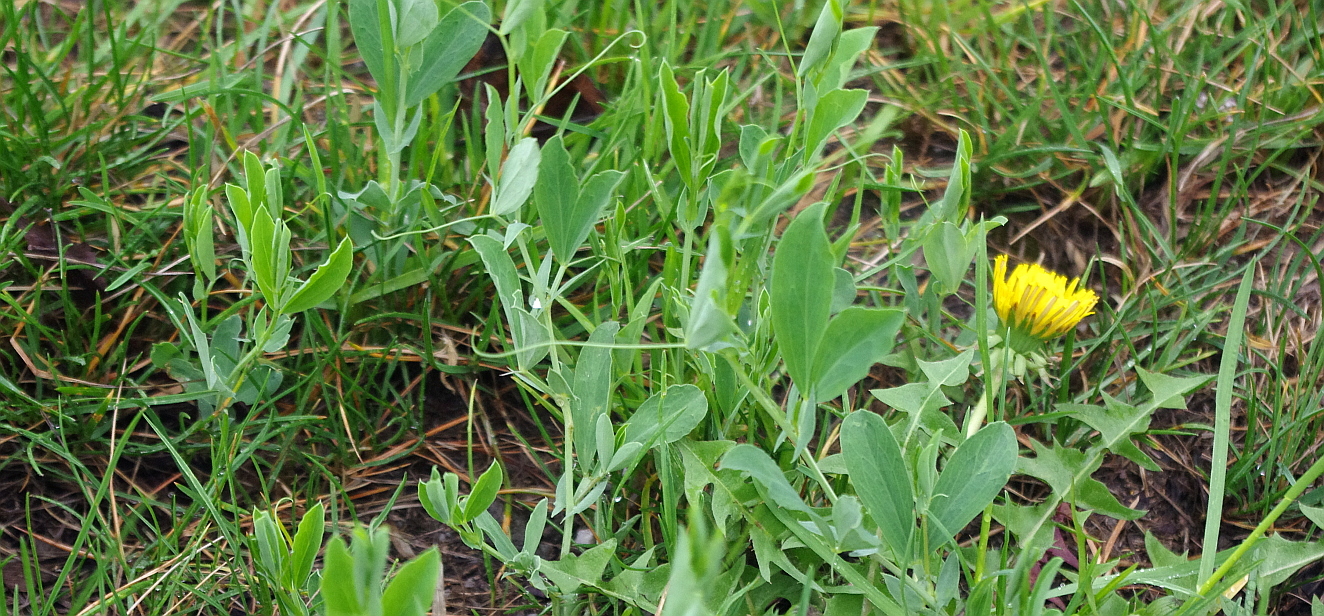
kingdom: Plantae
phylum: Tracheophyta
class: Magnoliopsida
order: Fabales
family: Fabaceae
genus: Lathyrus
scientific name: Lathyrus tuberosus
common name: Tuberous pea
